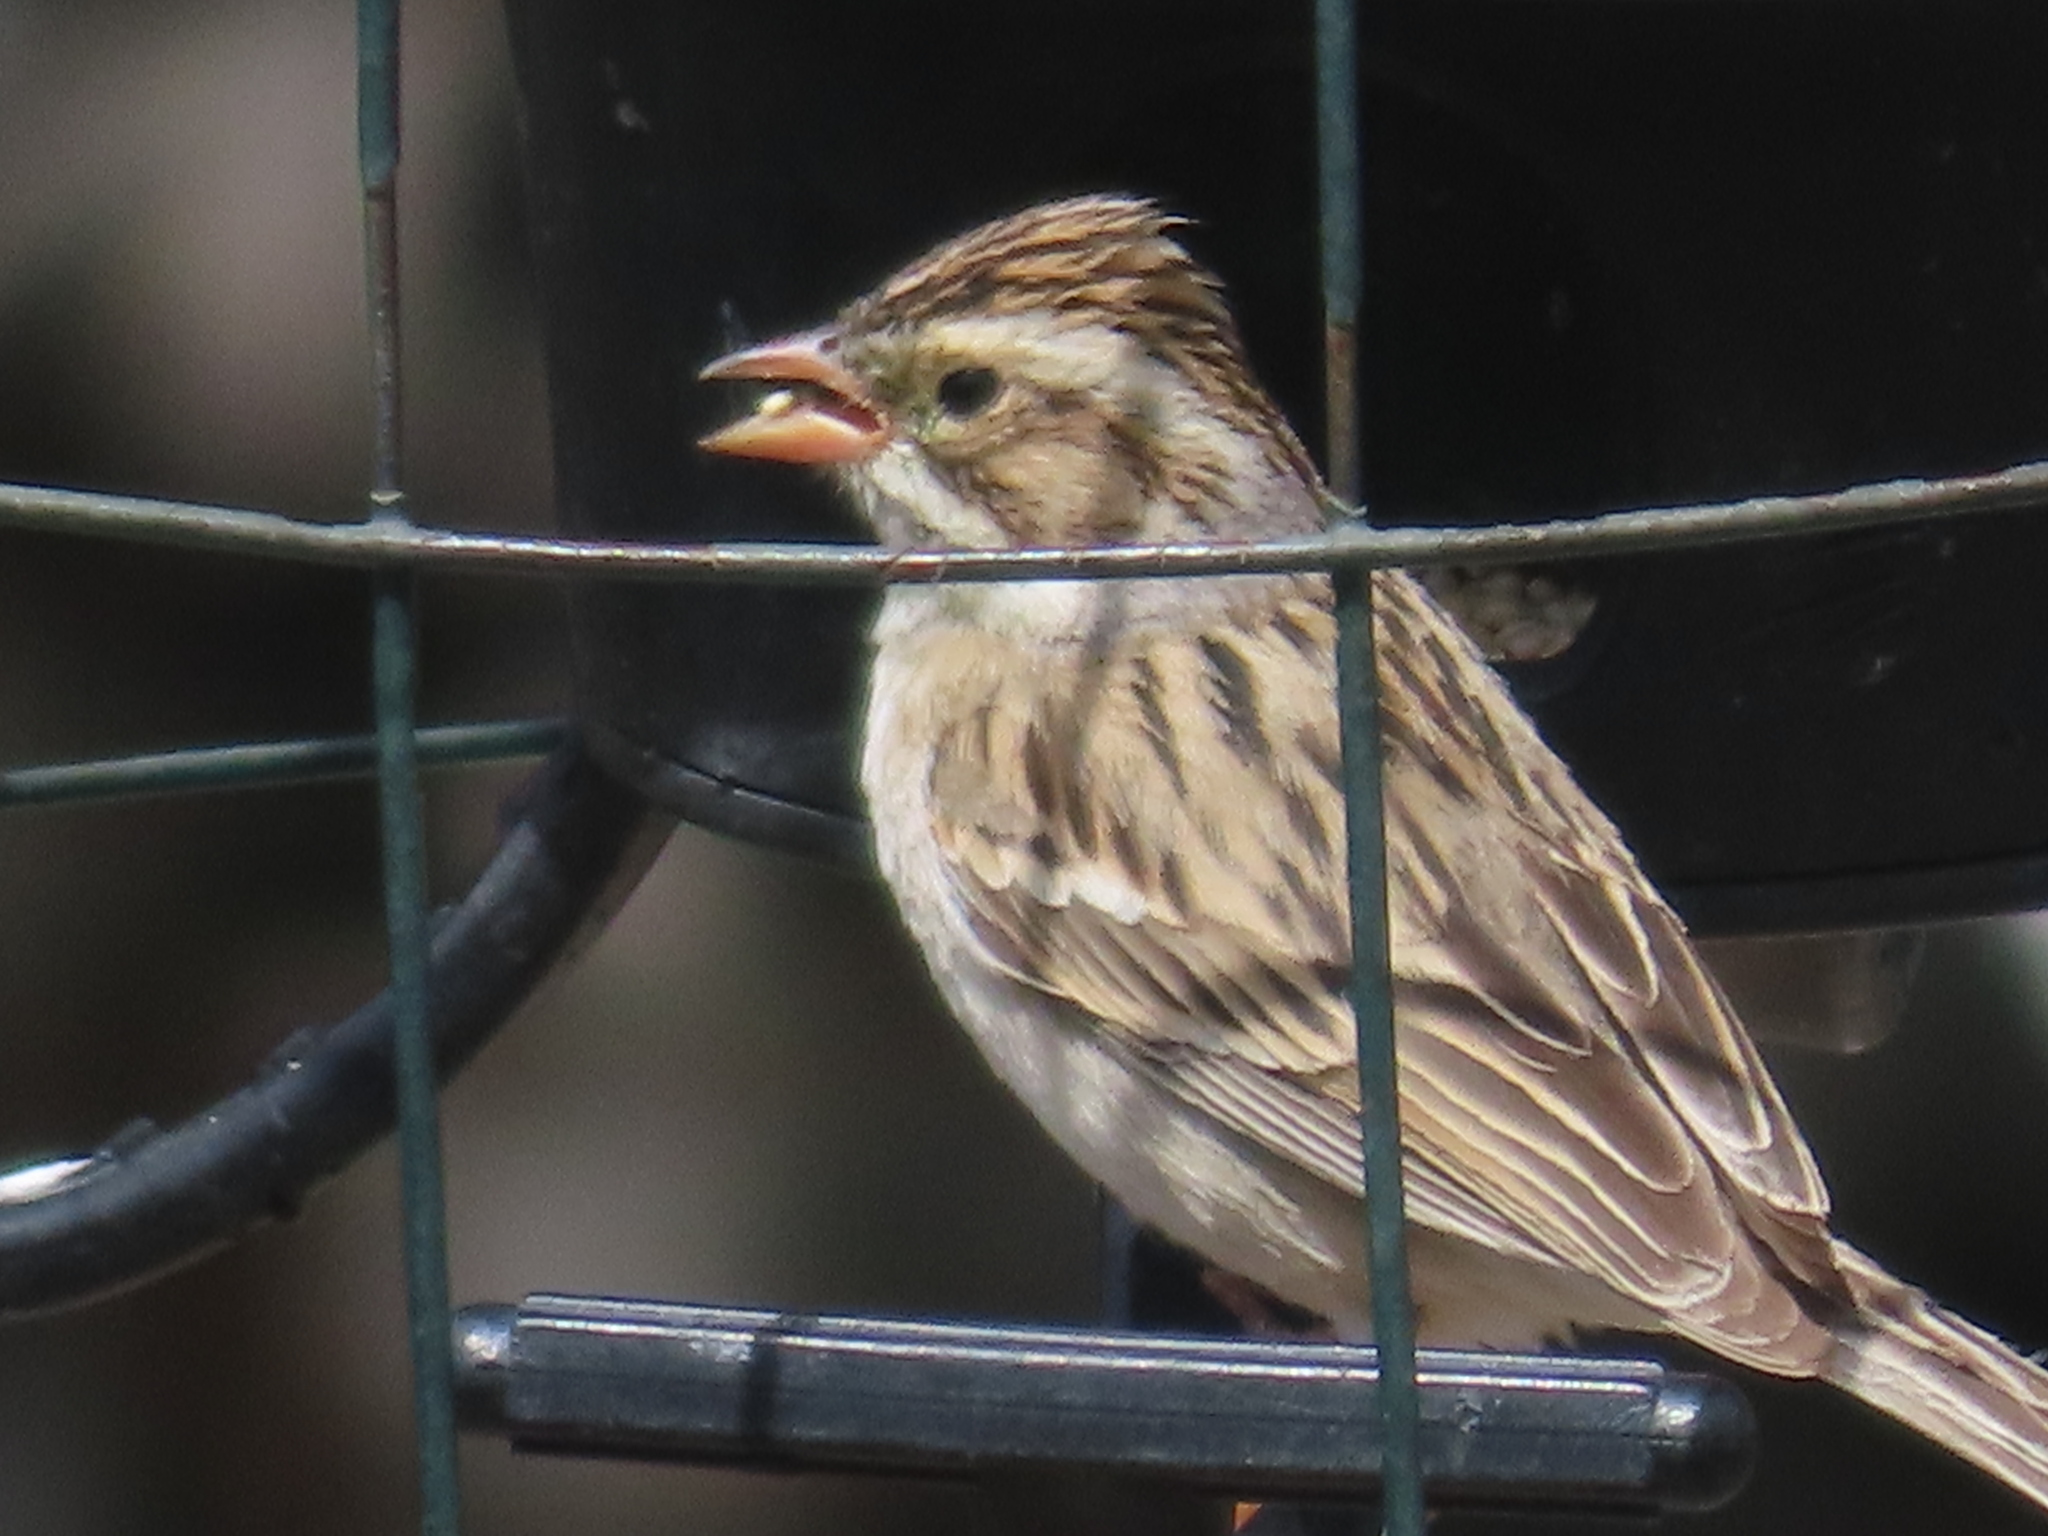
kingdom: Animalia
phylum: Chordata
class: Aves
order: Passeriformes
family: Passerellidae
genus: Spizella
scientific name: Spizella pallida
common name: Clay-colored sparrow
